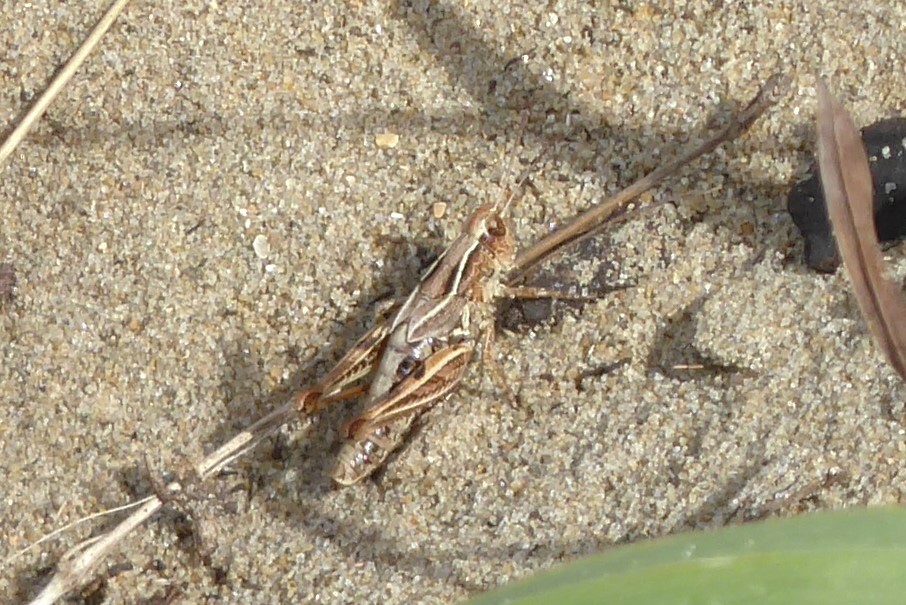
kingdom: Animalia
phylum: Arthropoda
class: Insecta
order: Orthoptera
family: Acrididae
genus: Phaulacridium
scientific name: Phaulacridium marginale
